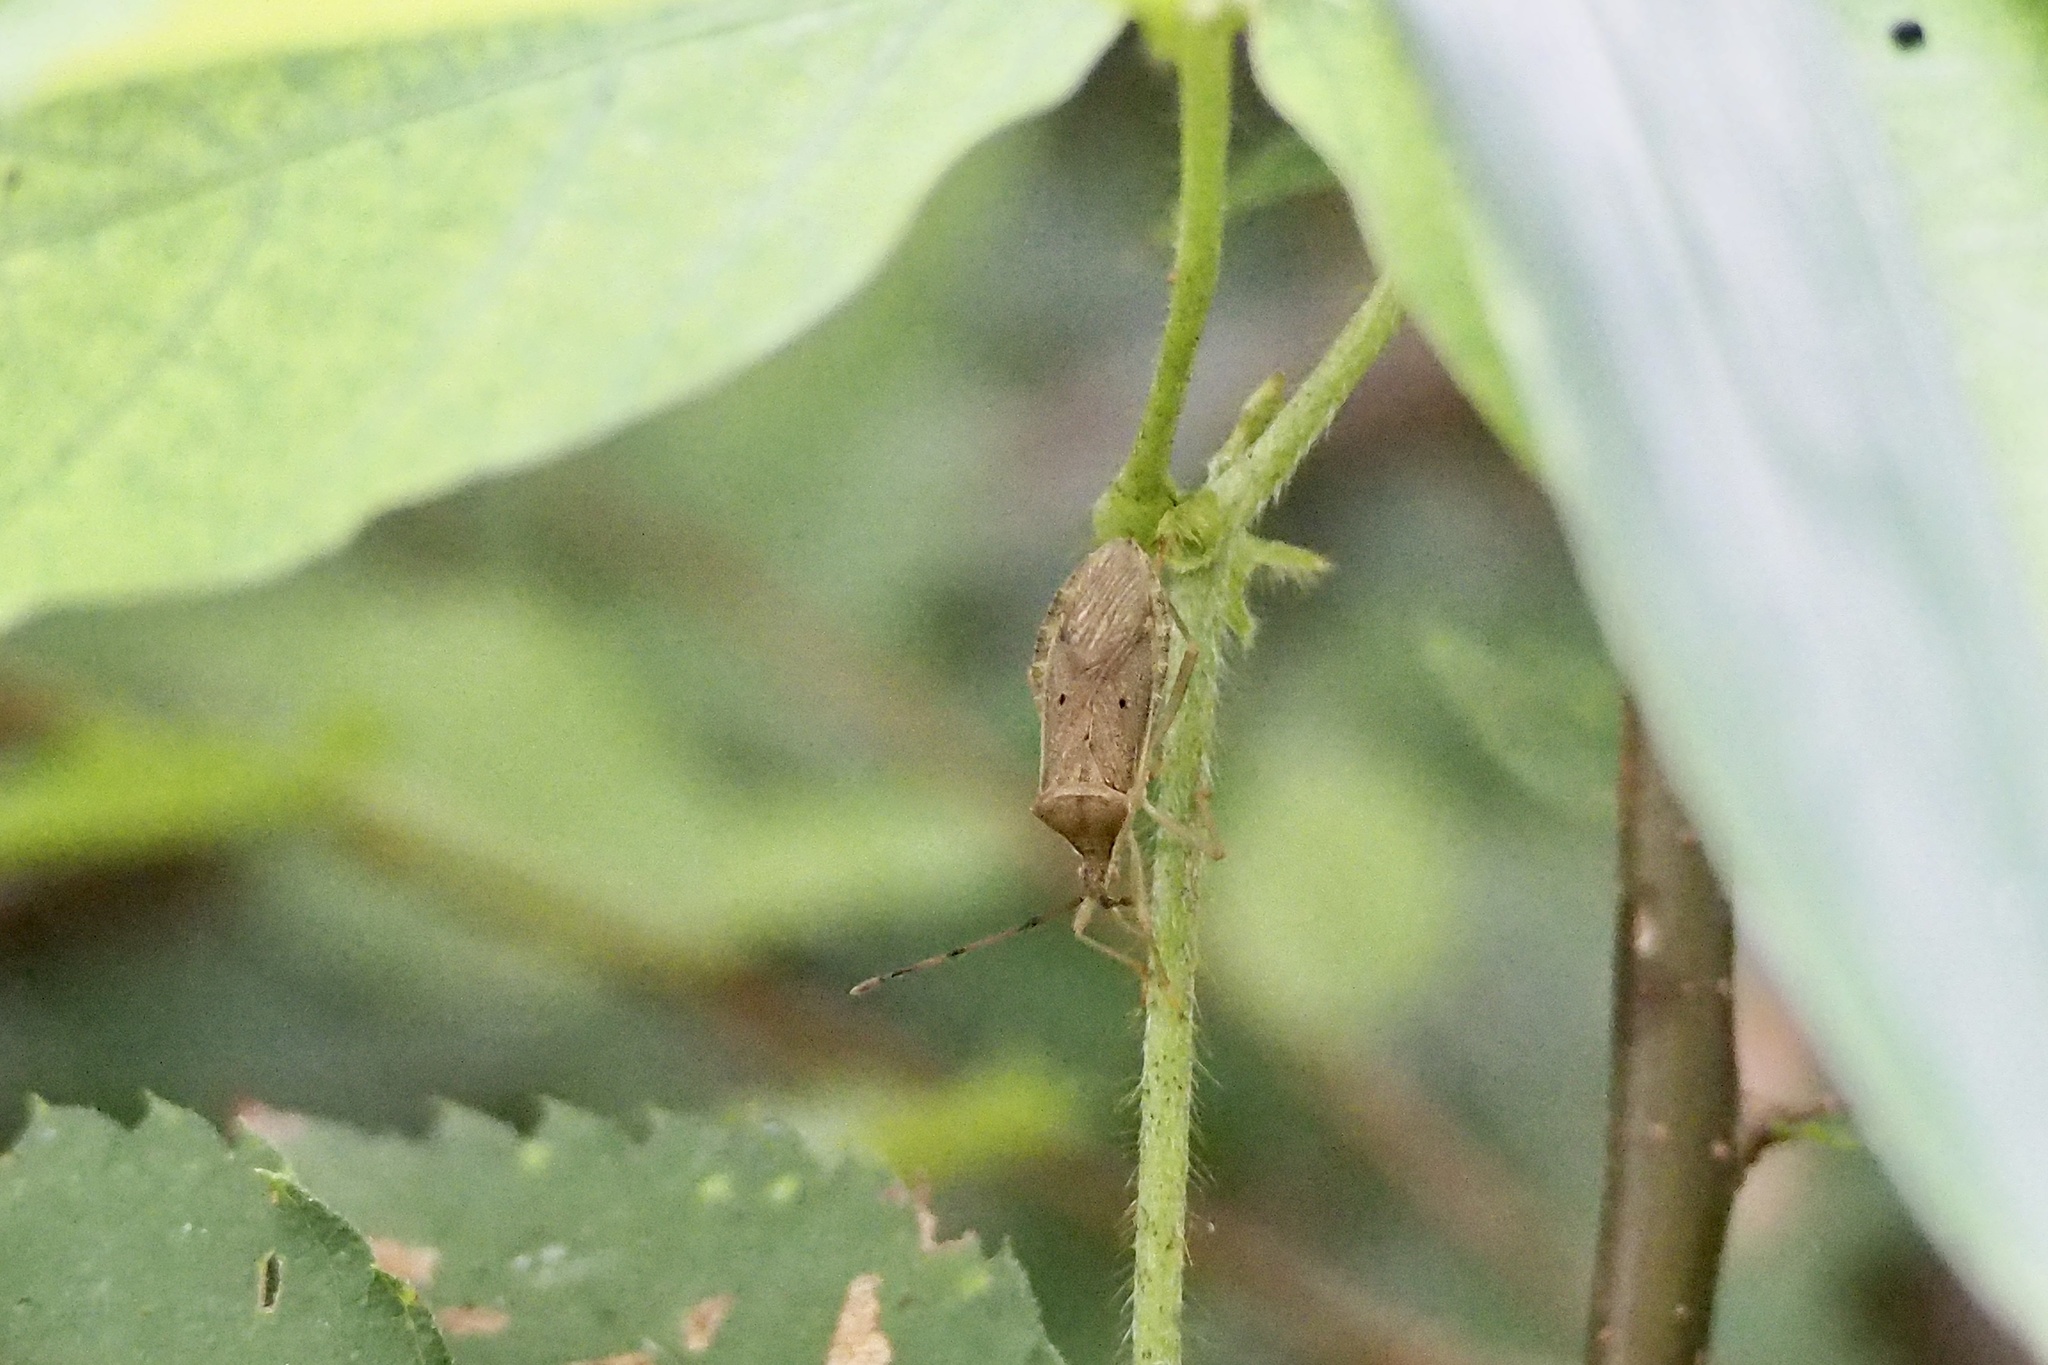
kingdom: Animalia
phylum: Arthropoda
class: Insecta
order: Hemiptera
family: Coreidae
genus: Homoeocerus
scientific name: Homoeocerus unipunctatus
